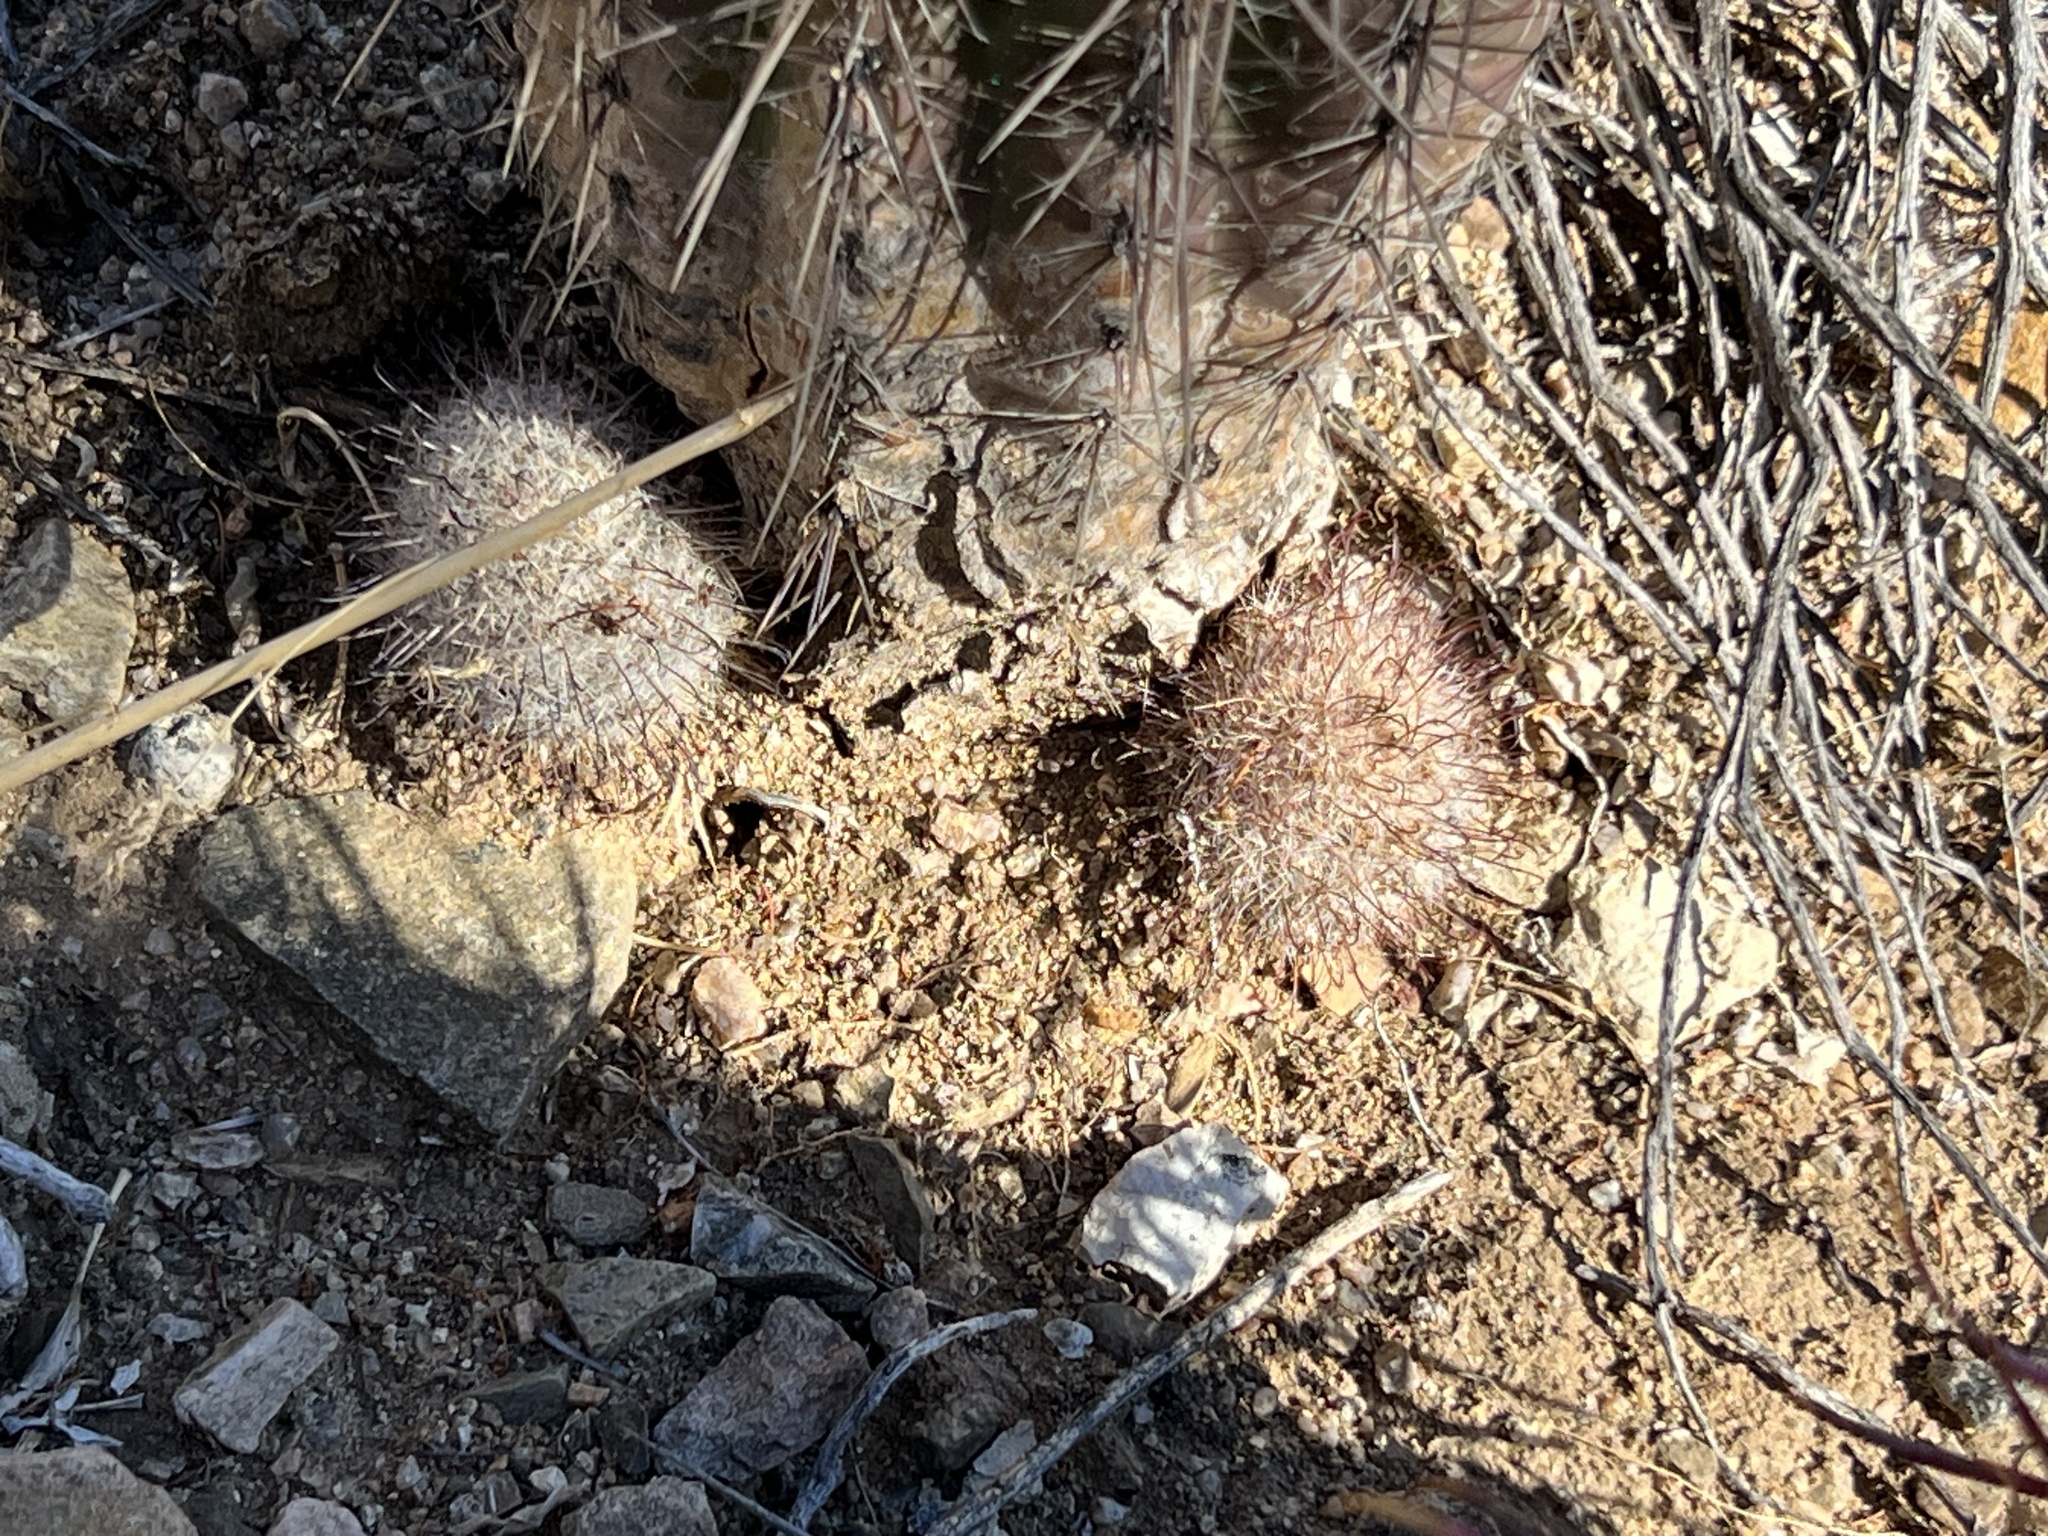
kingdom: Plantae
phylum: Tracheophyta
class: Magnoliopsida
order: Caryophyllales
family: Cactaceae
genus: Cochemiea
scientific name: Cochemiea grahamii
